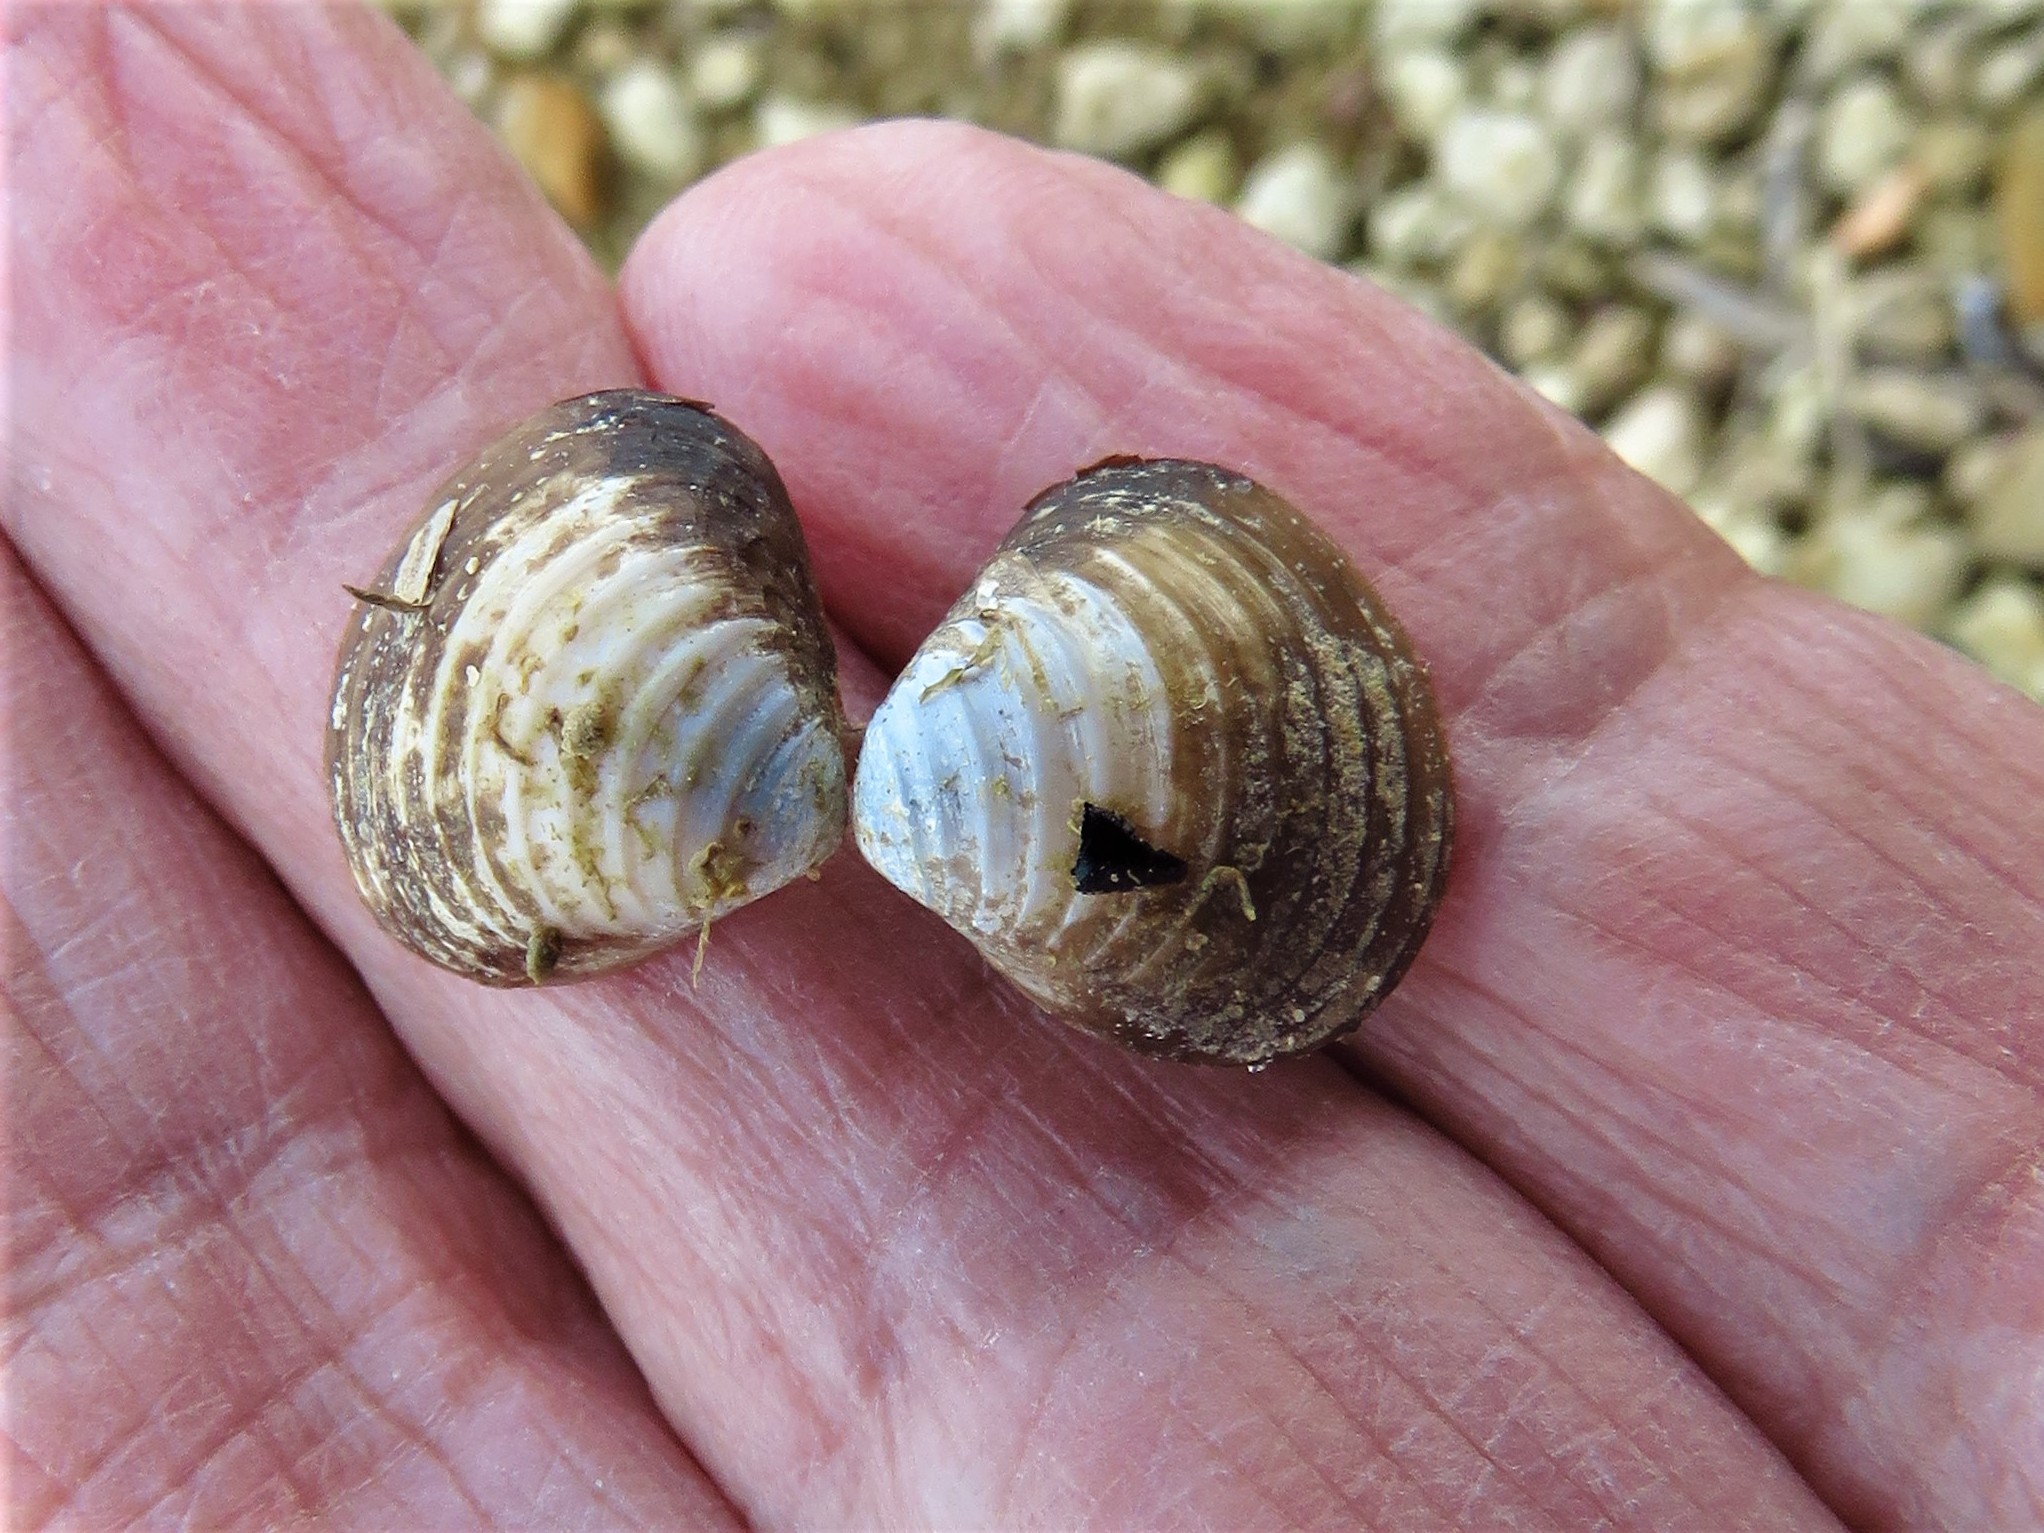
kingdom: Animalia
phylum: Mollusca
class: Bivalvia
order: Venerida
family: Cyrenidae
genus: Corbicula
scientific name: Corbicula fluminea
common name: Asian clam
